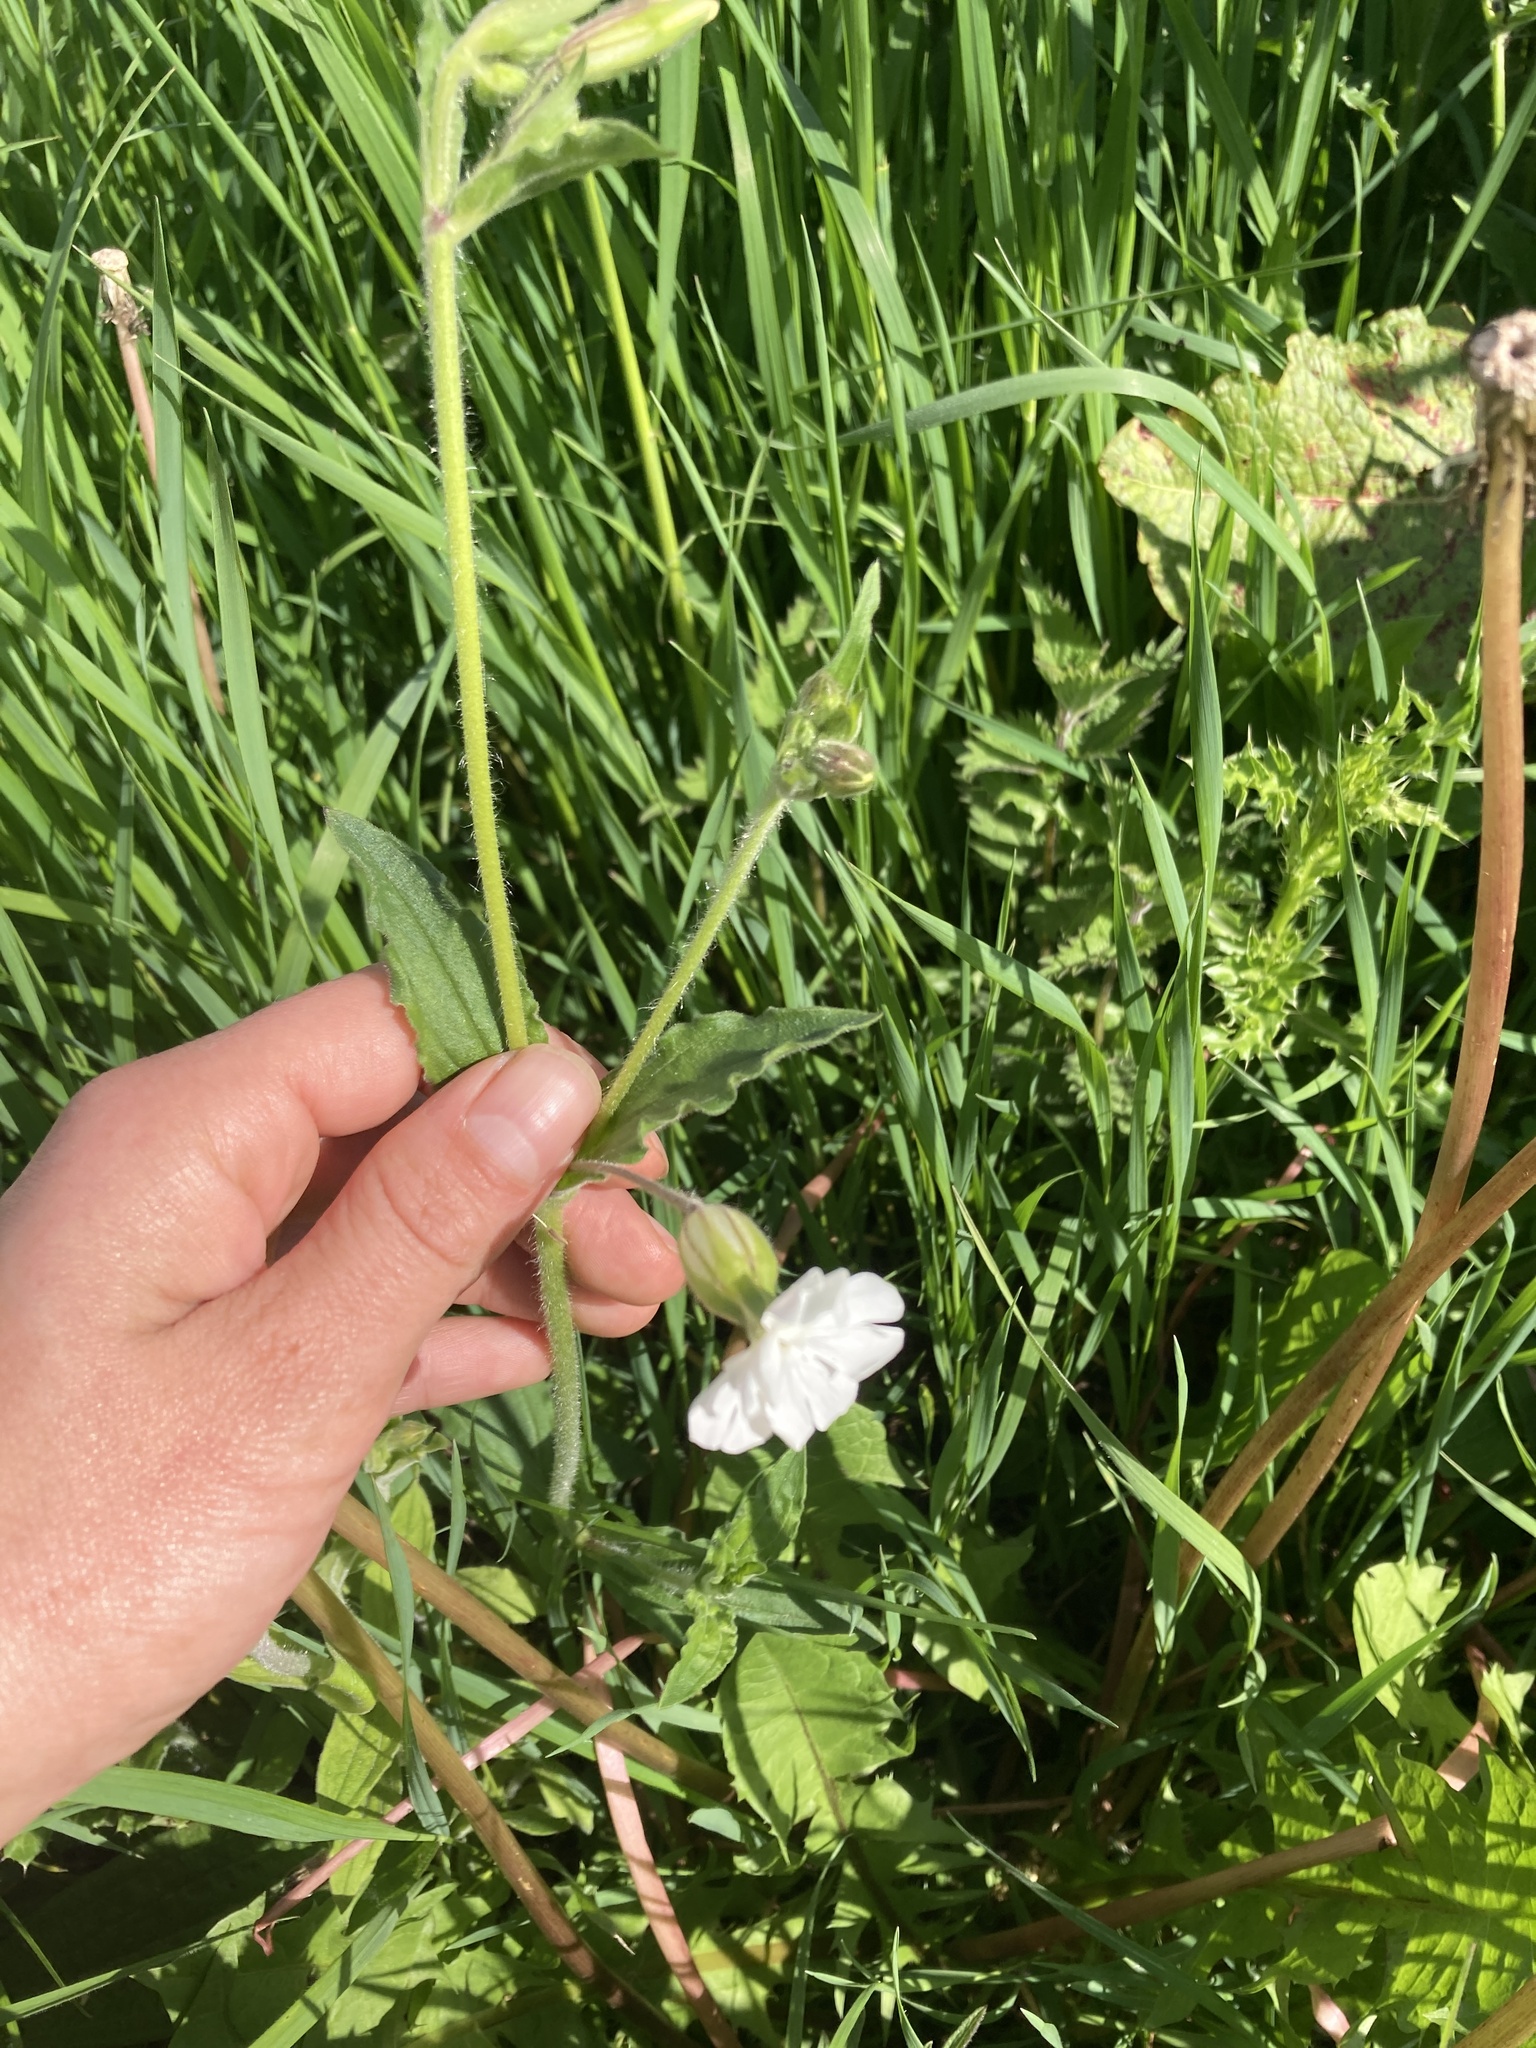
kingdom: Plantae
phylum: Tracheophyta
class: Magnoliopsida
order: Caryophyllales
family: Caryophyllaceae
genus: Silene
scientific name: Silene latifolia
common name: White campion
